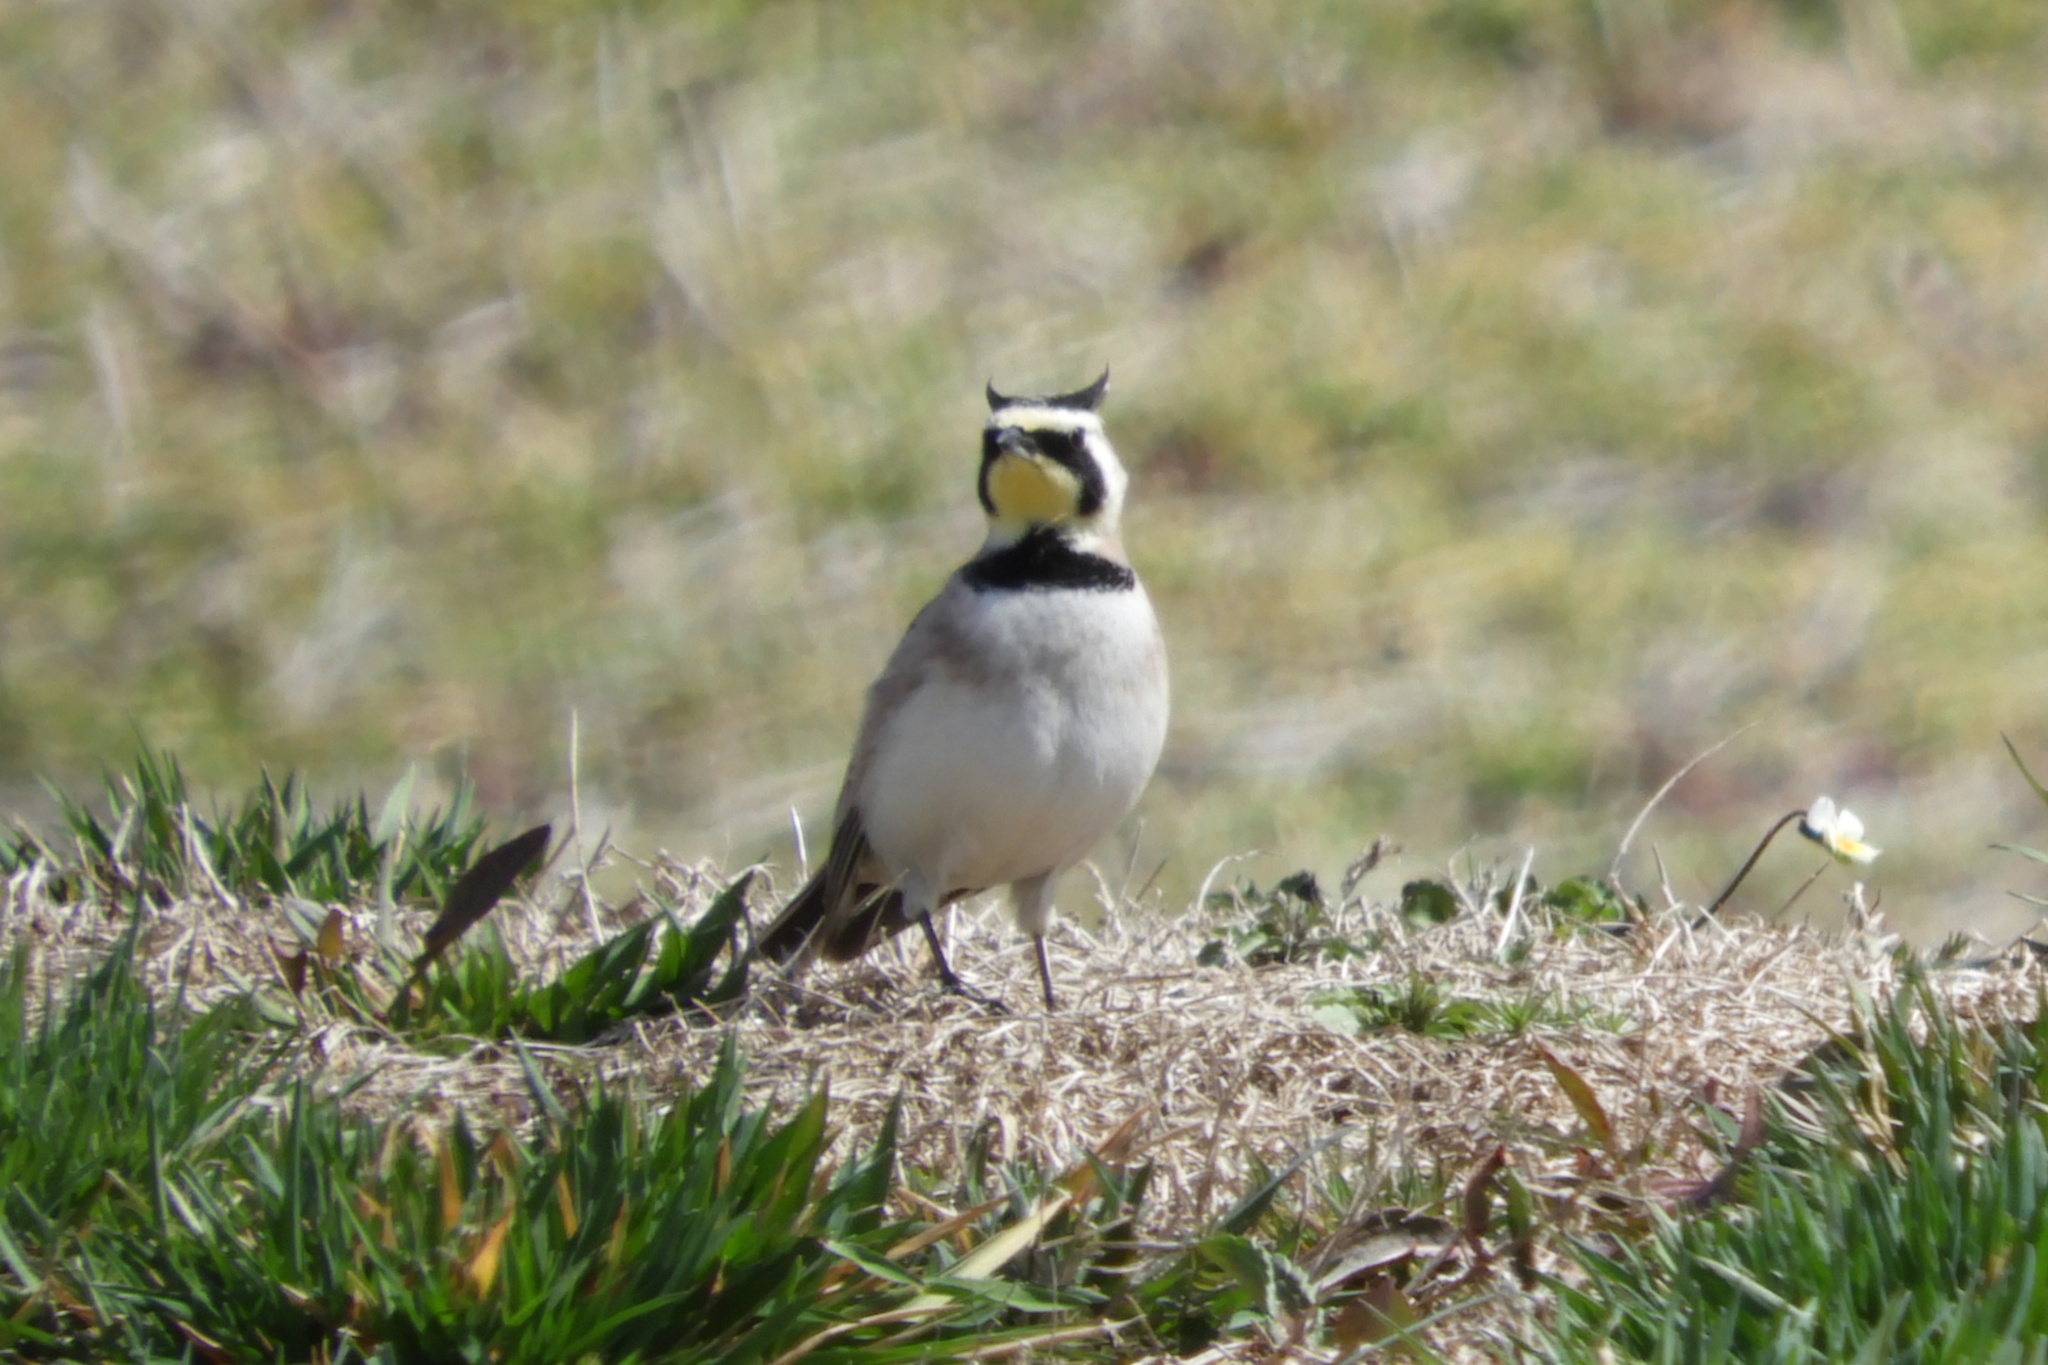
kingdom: Animalia
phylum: Chordata
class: Aves
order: Passeriformes
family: Alaudidae
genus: Eremophila
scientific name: Eremophila alpestris
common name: Horned lark
